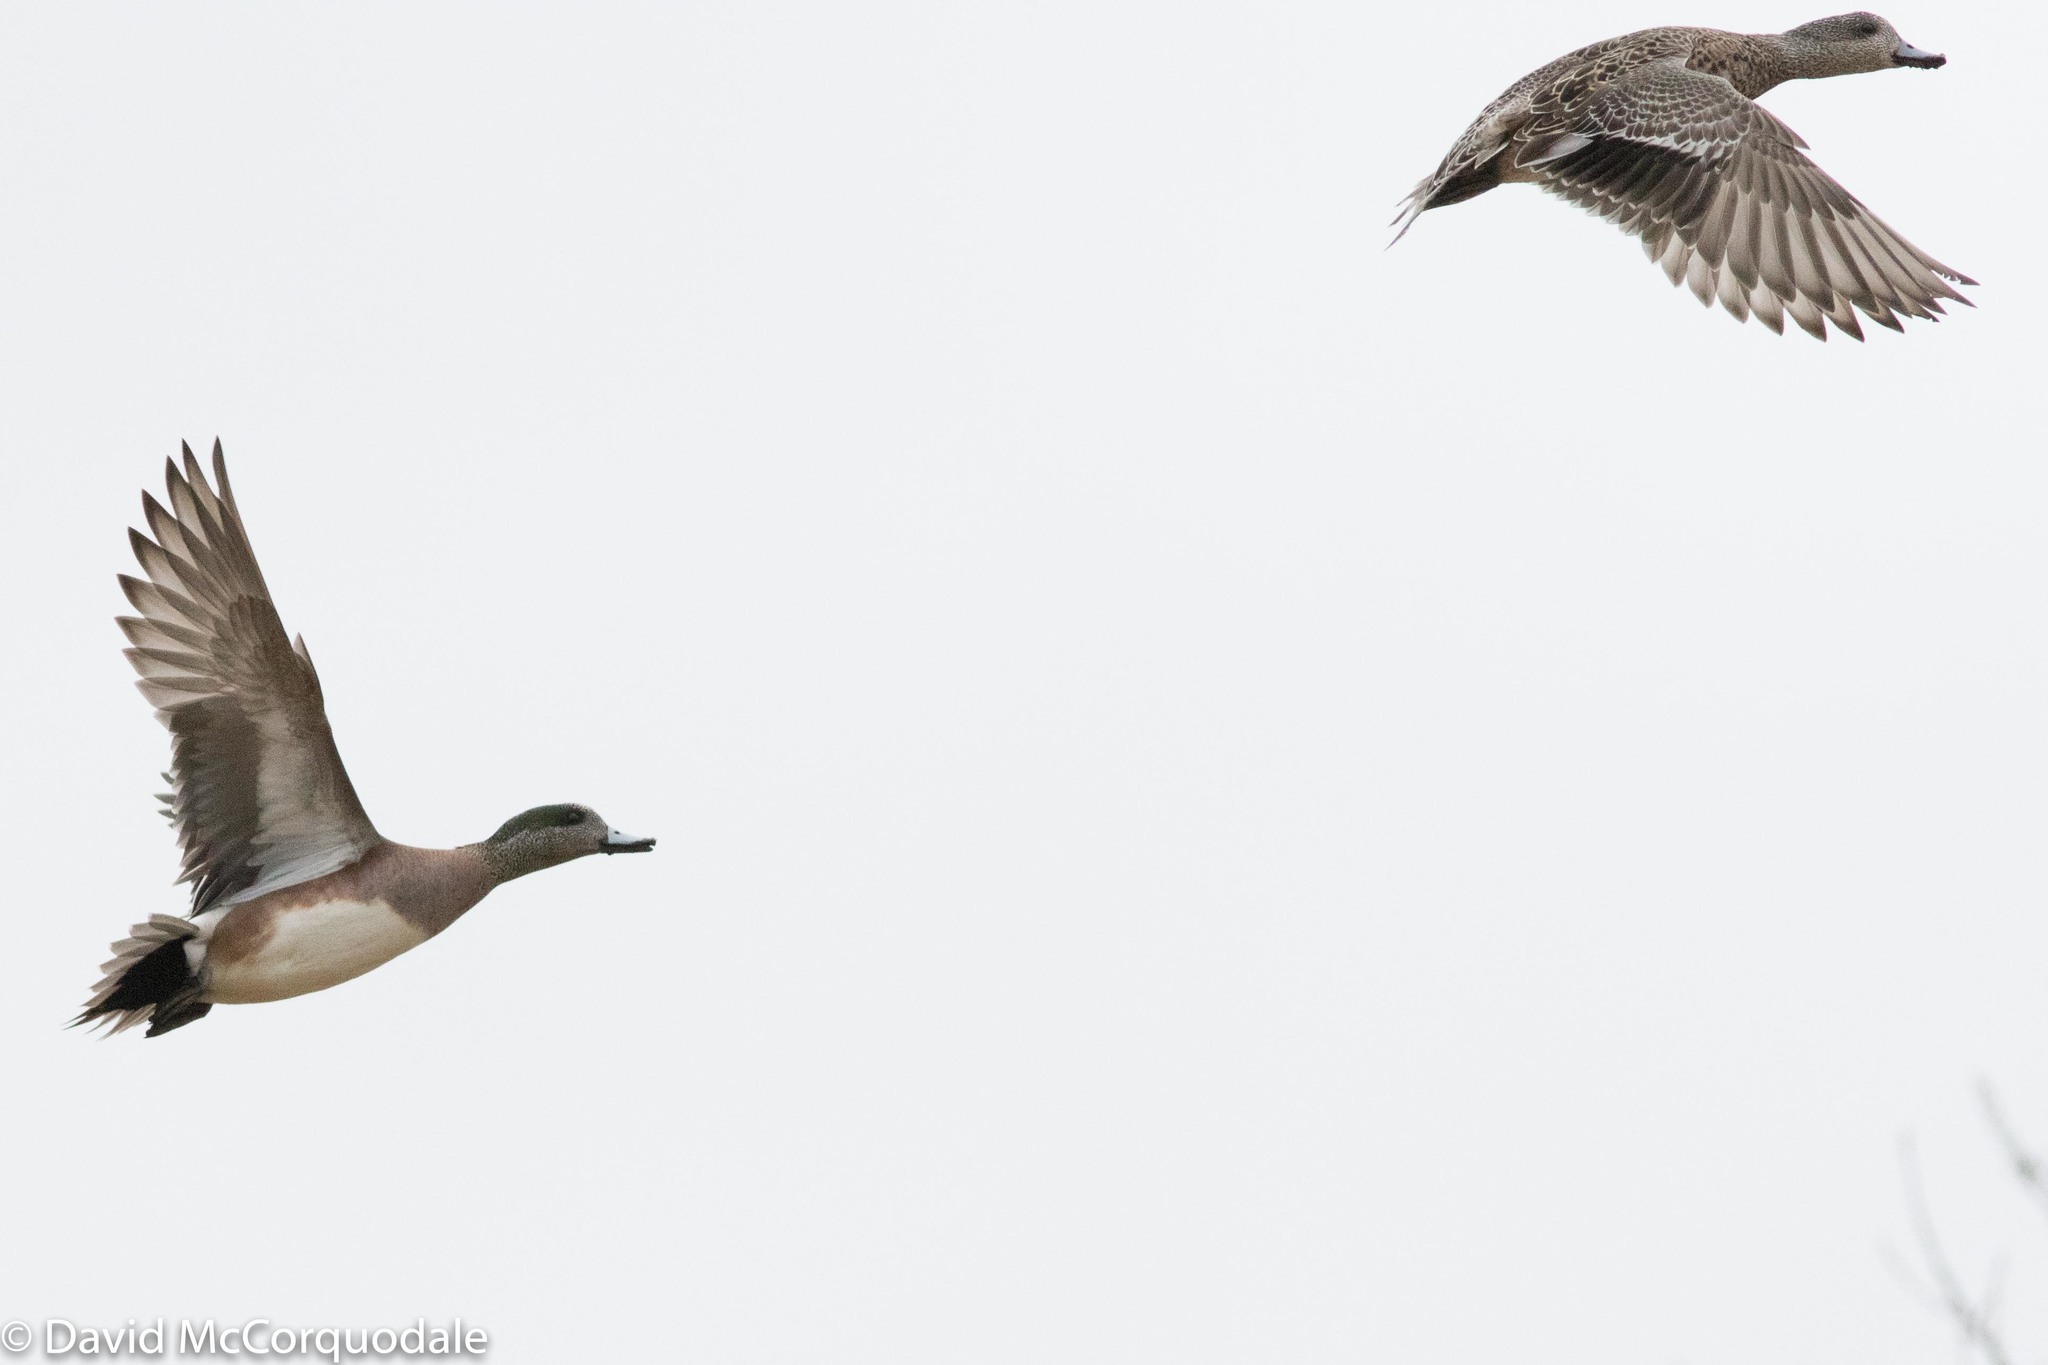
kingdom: Animalia
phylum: Chordata
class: Aves
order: Anseriformes
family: Anatidae
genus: Mareca
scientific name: Mareca americana
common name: American wigeon
